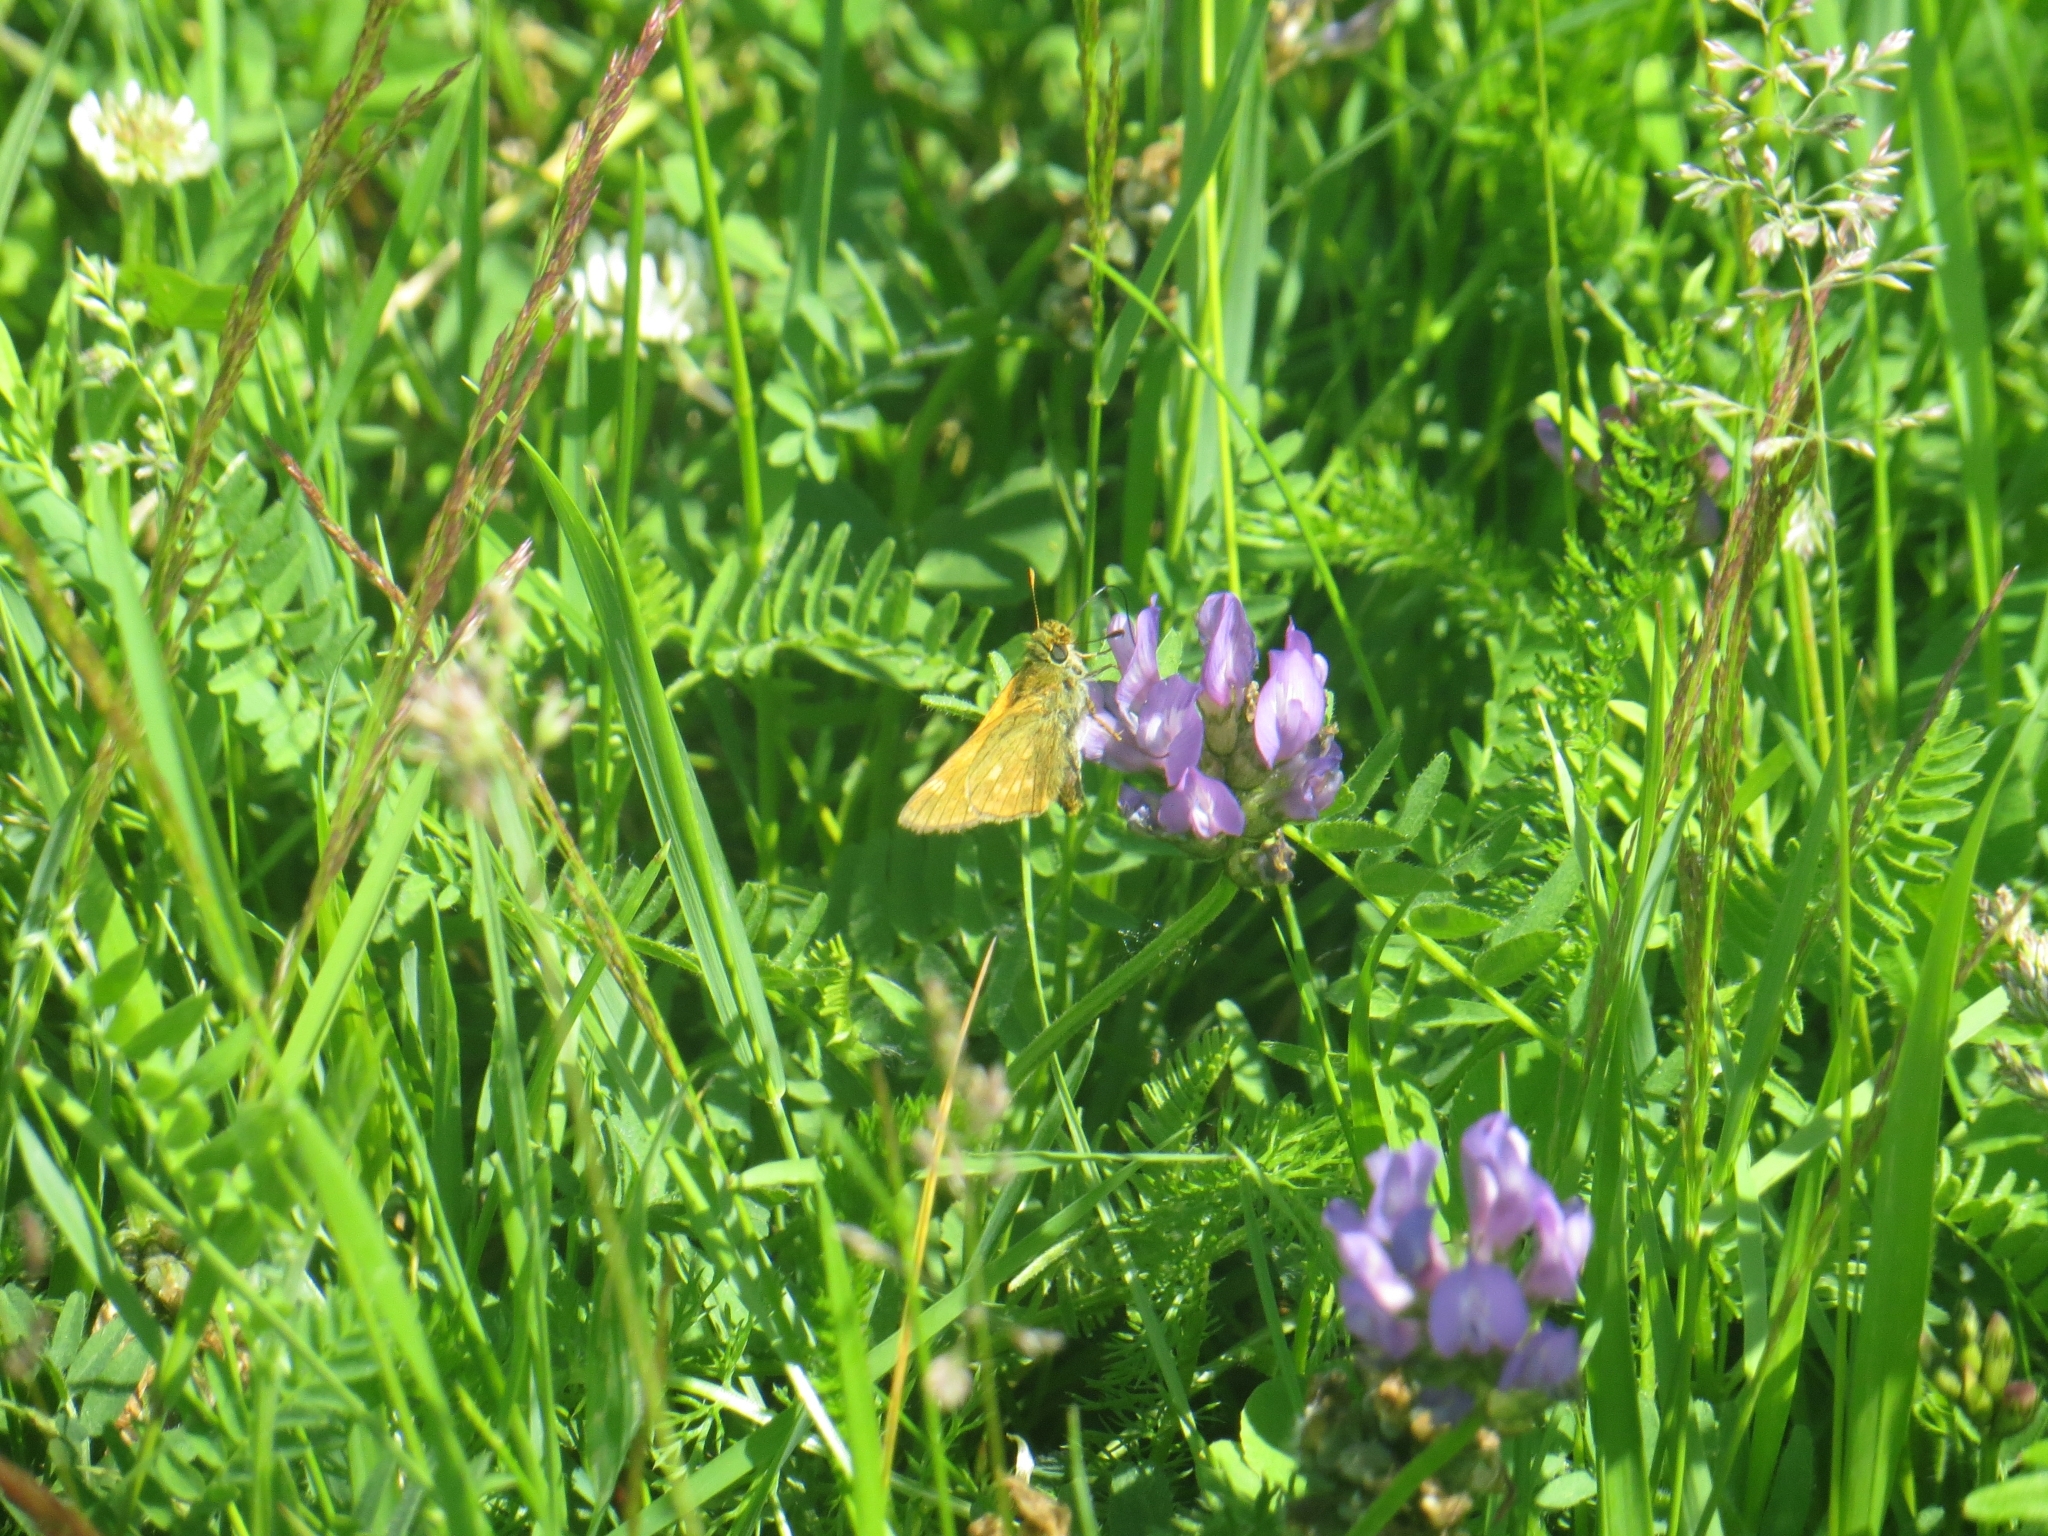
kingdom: Animalia
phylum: Arthropoda
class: Insecta
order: Lepidoptera
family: Hesperiidae
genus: Ochlodes
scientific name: Ochlodes venata
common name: Large skipper
